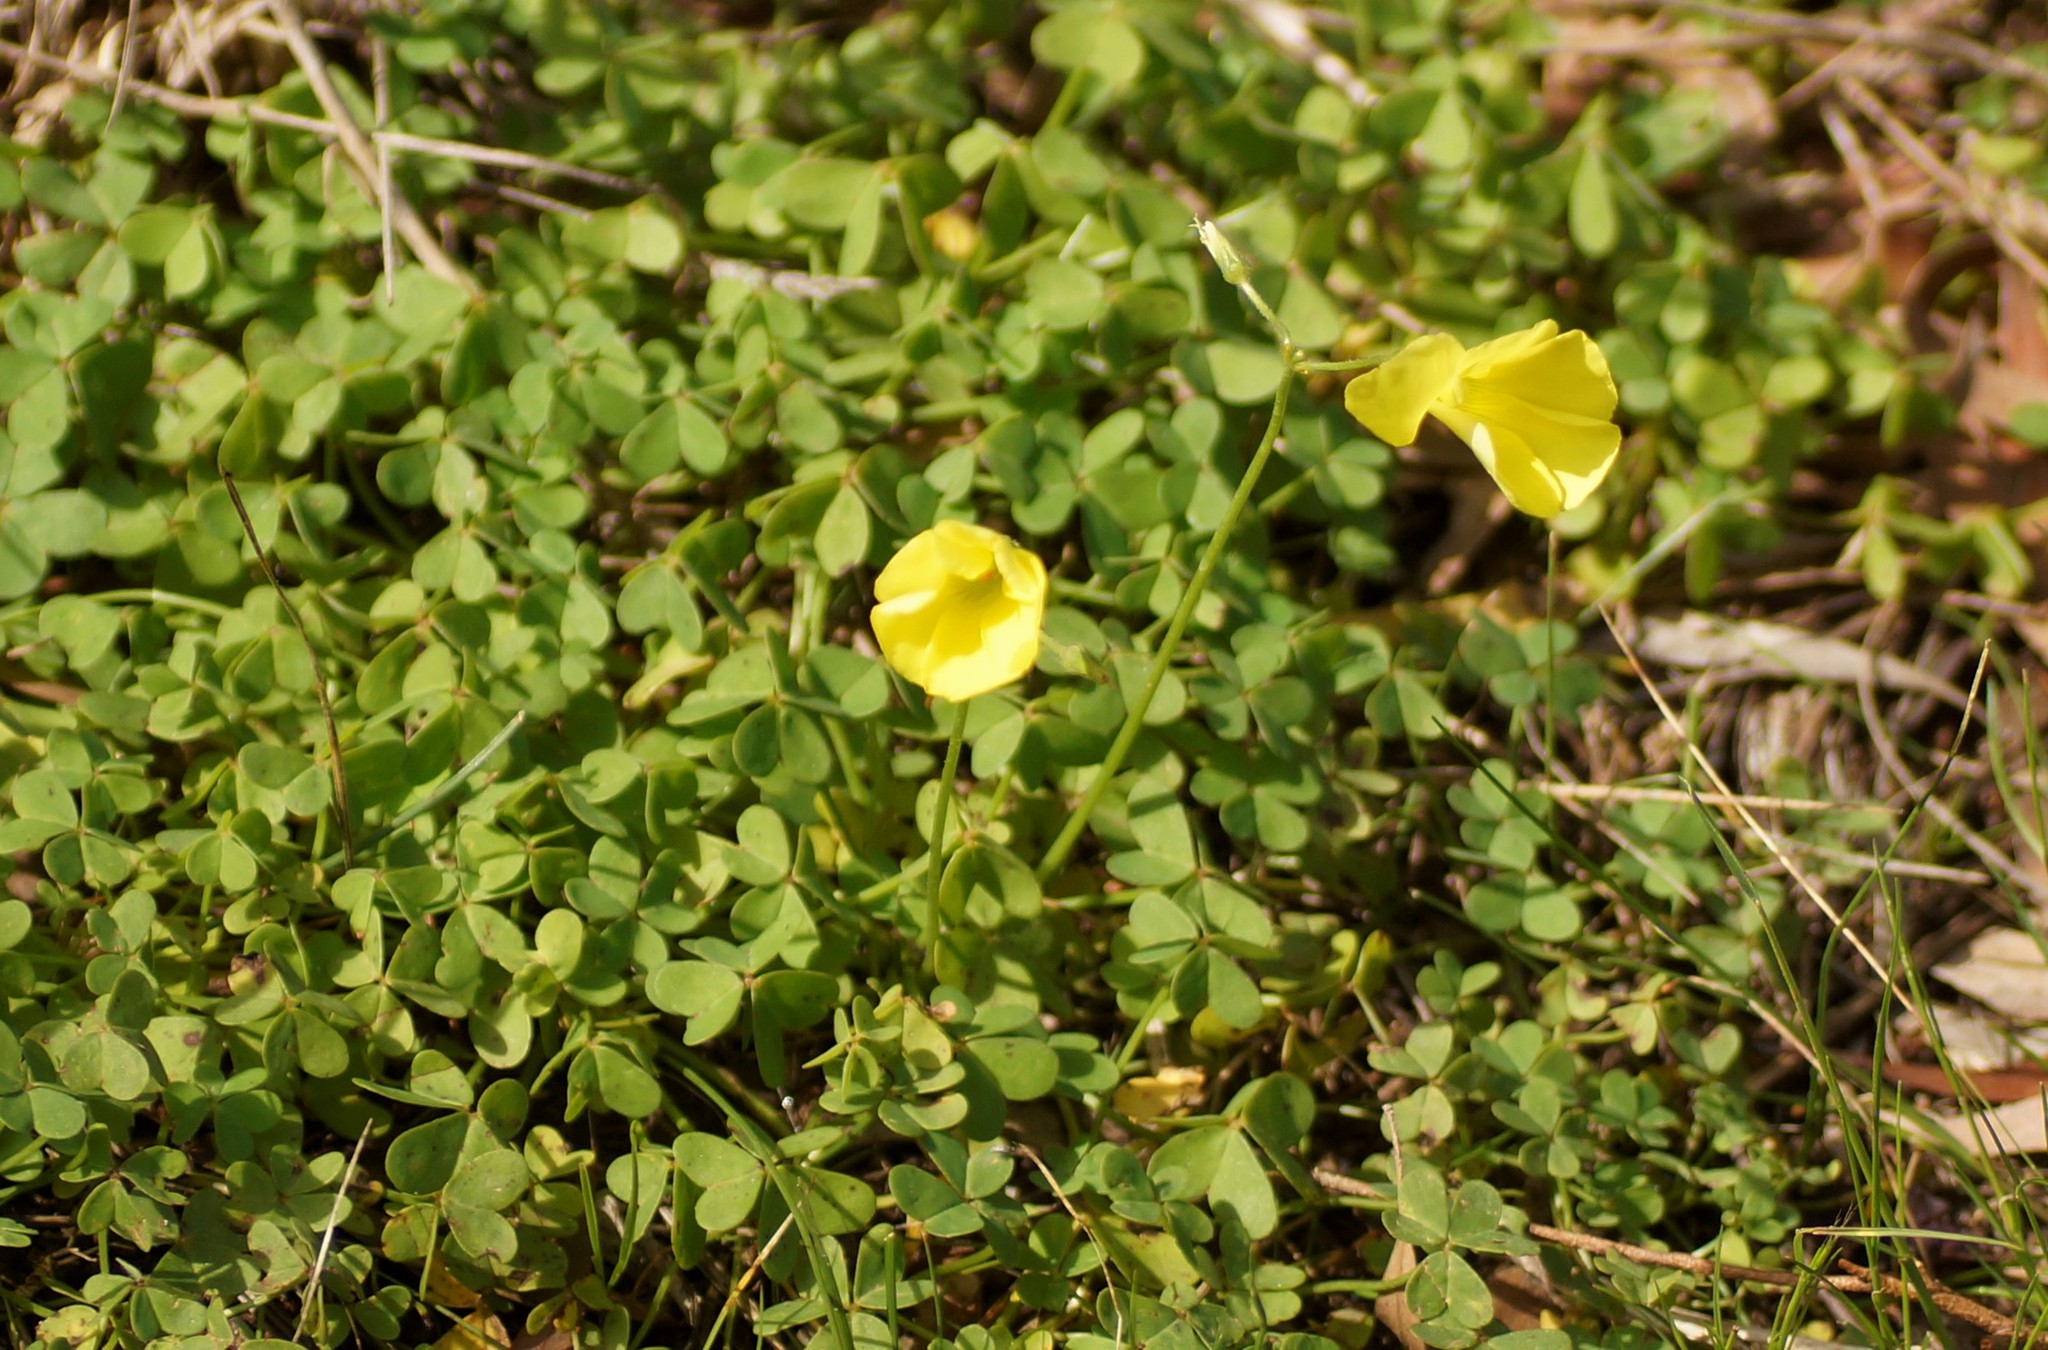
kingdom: Plantae
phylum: Tracheophyta
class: Magnoliopsida
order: Oxalidales
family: Oxalidaceae
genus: Oxalis
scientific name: Oxalis pes-caprae
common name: Bermuda-buttercup
